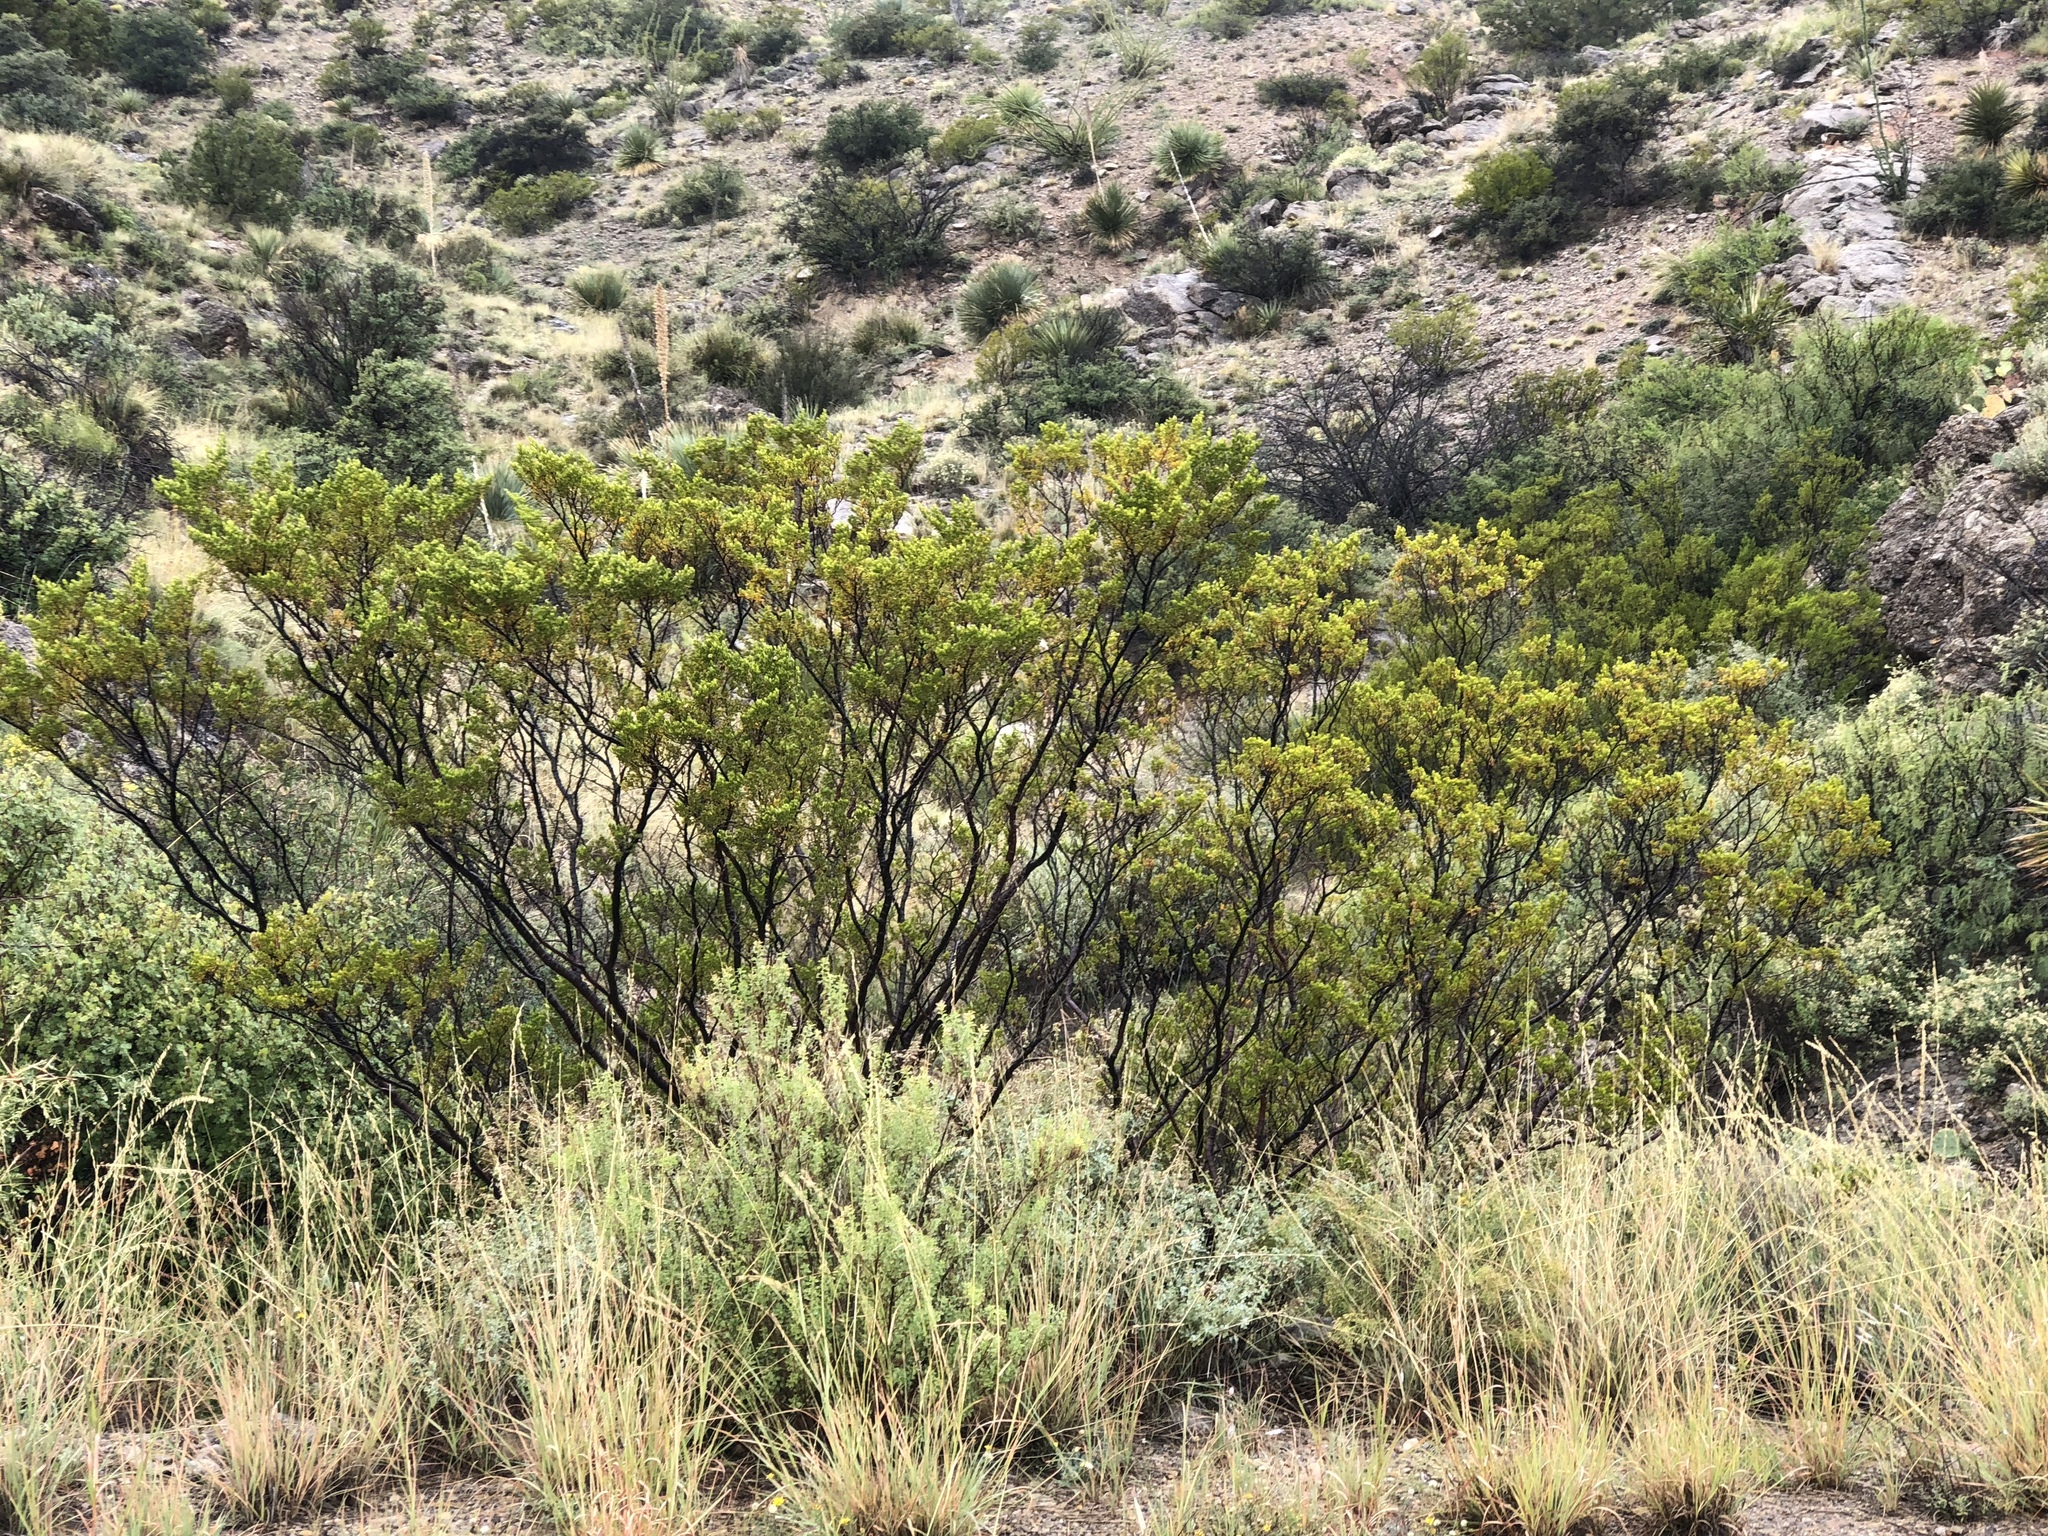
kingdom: Plantae
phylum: Tracheophyta
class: Magnoliopsida
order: Zygophyllales
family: Zygophyllaceae
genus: Larrea
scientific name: Larrea tridentata
